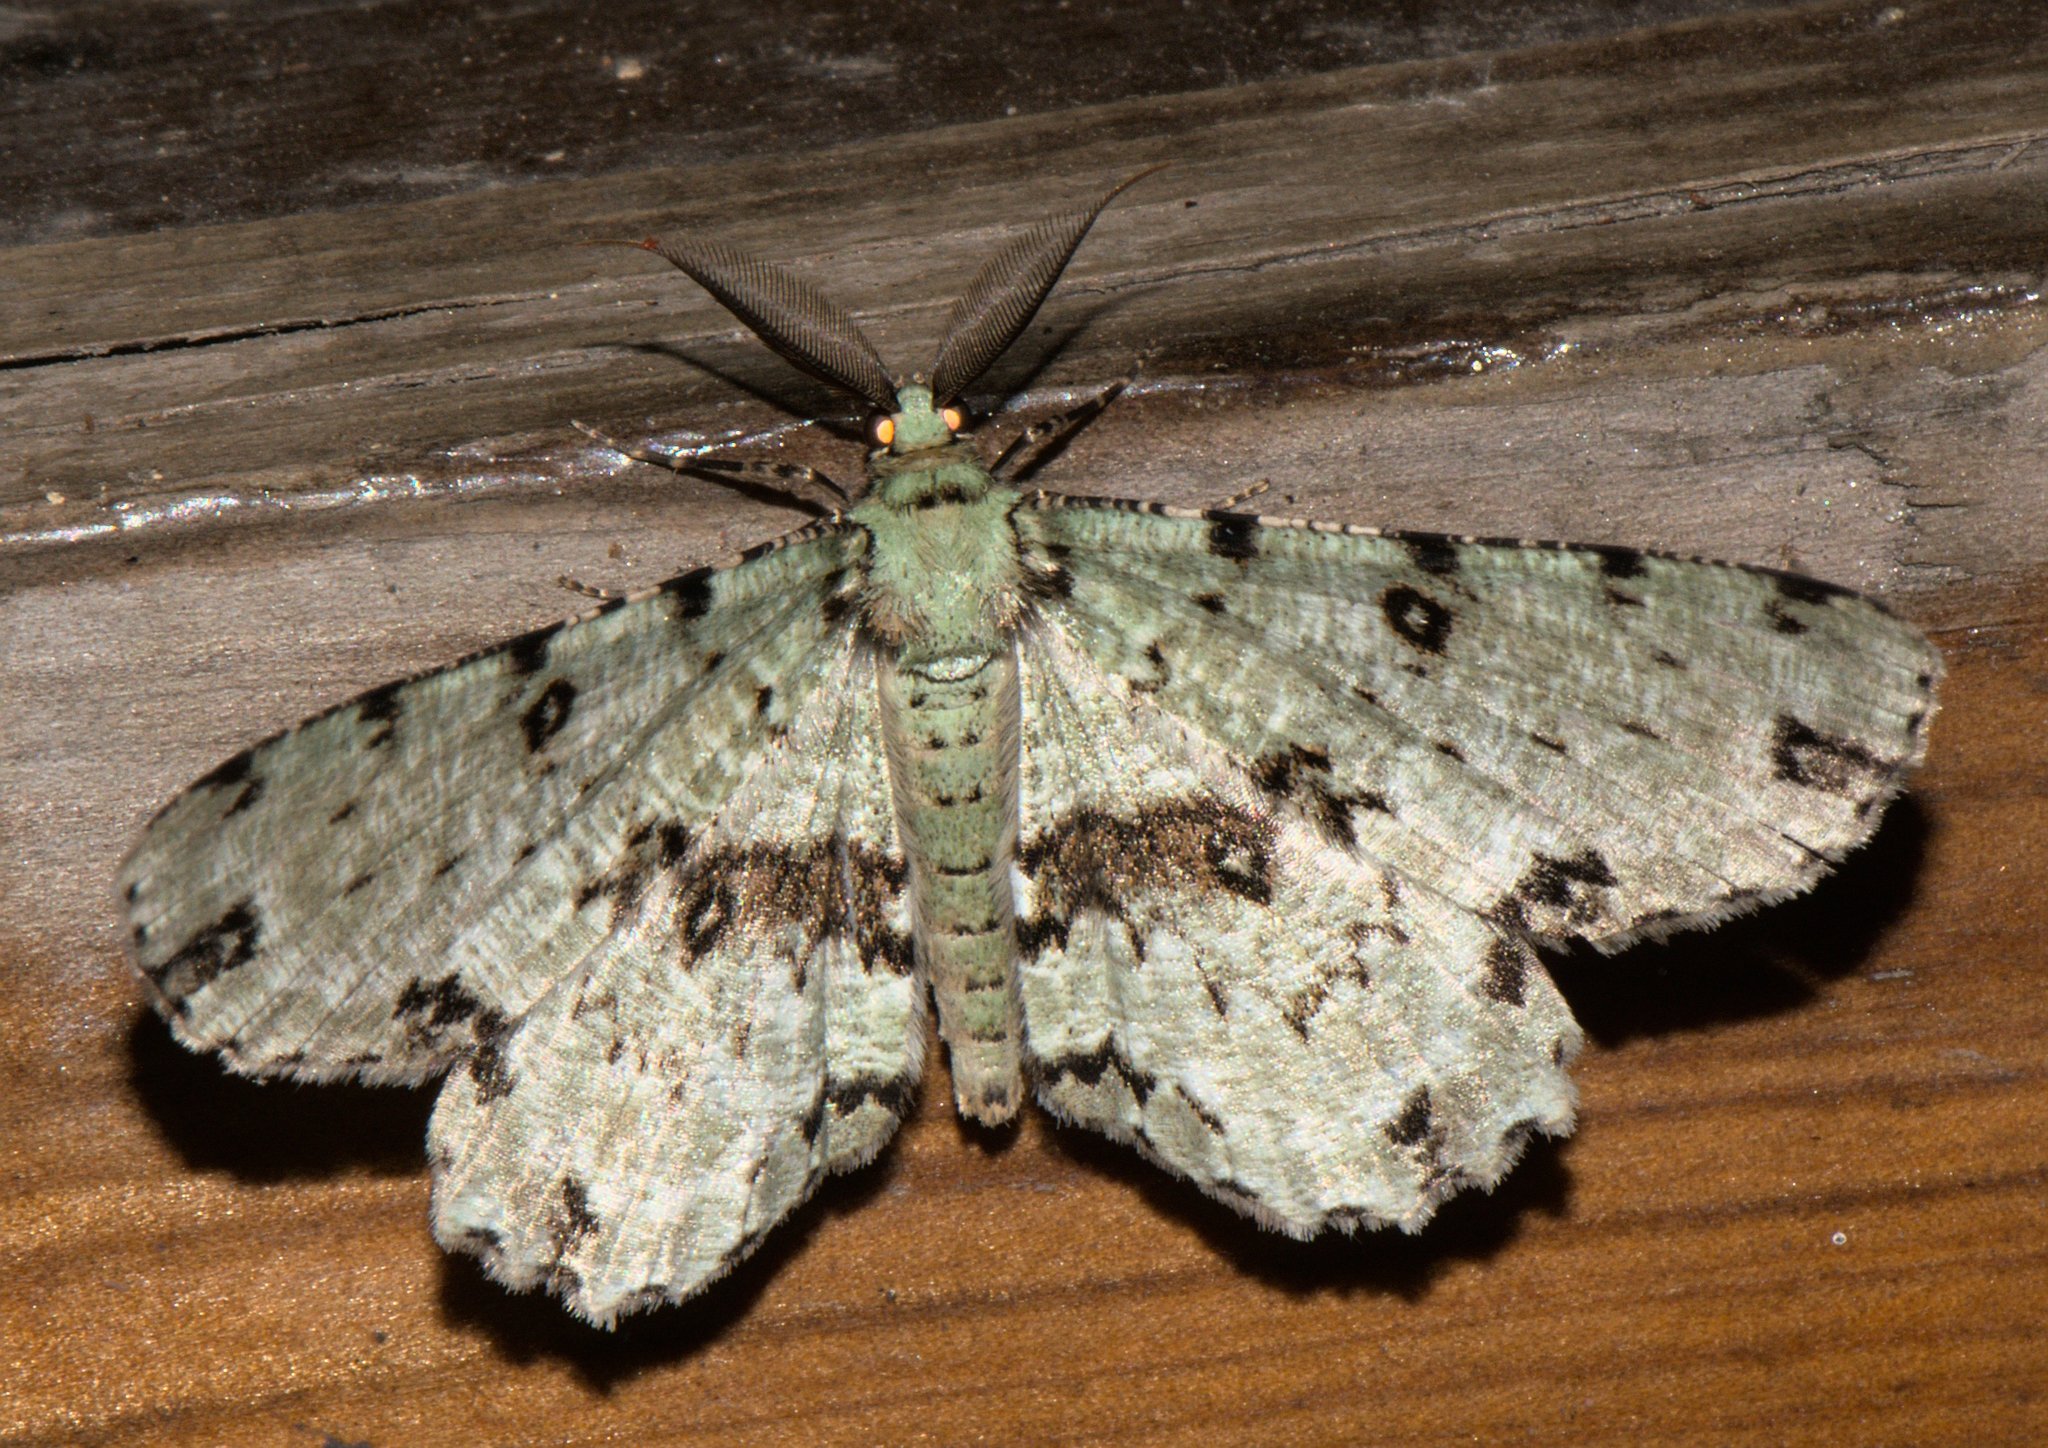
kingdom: Animalia
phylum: Arthropoda
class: Insecta
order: Lepidoptera
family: Geometridae
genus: Ophthalmitis
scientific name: Ophthalmitis herbidaria
